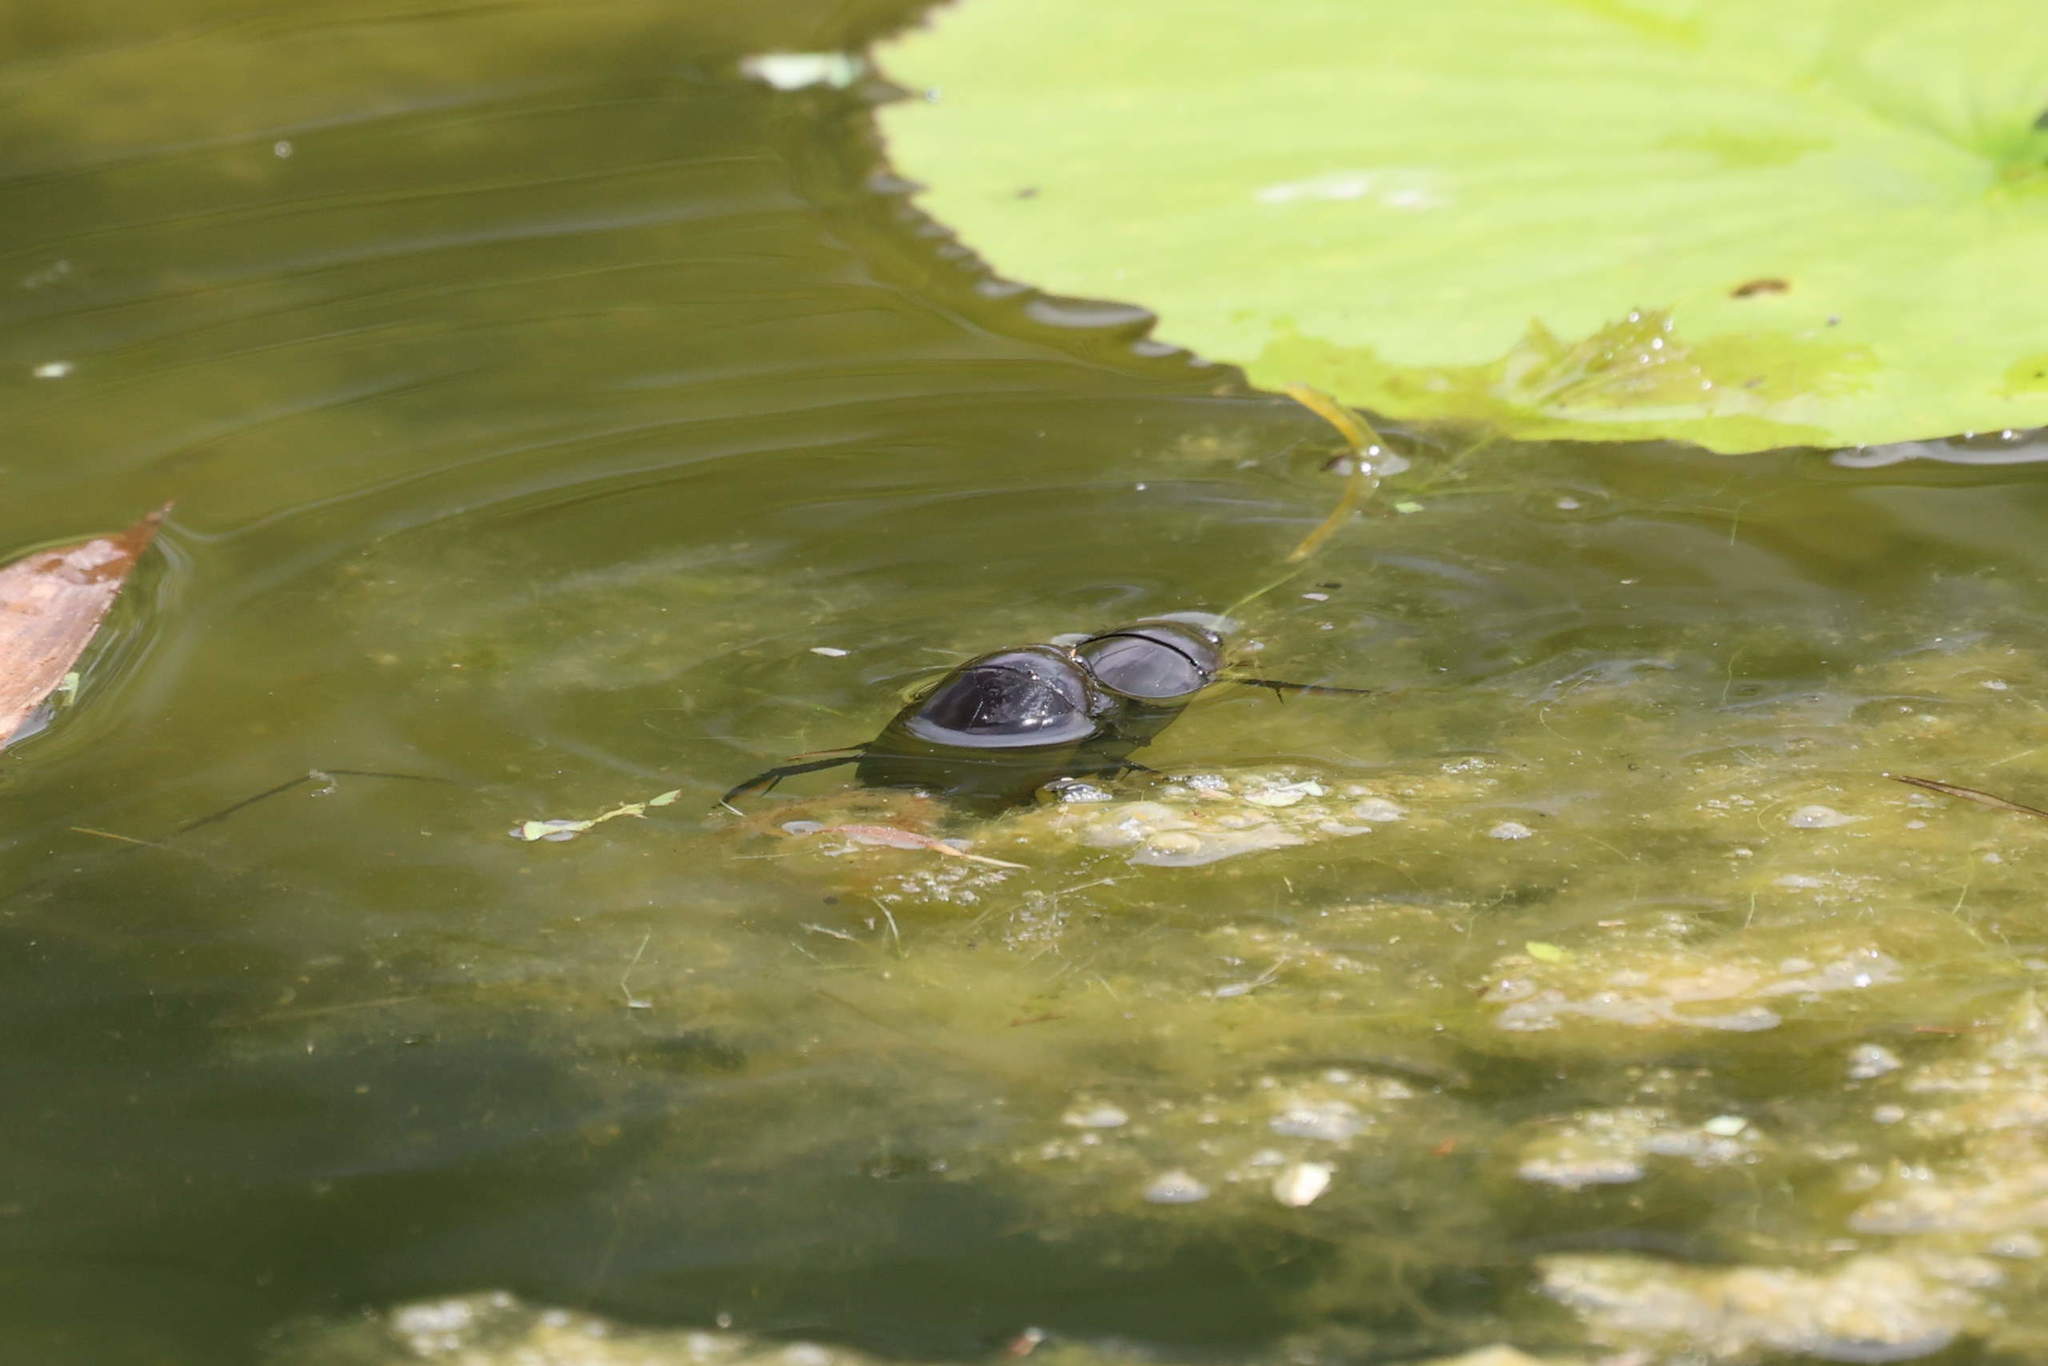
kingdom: Animalia
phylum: Arthropoda
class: Insecta
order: Coleoptera
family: Hydrophilidae
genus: Hydrophilus
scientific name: Hydrophilus
